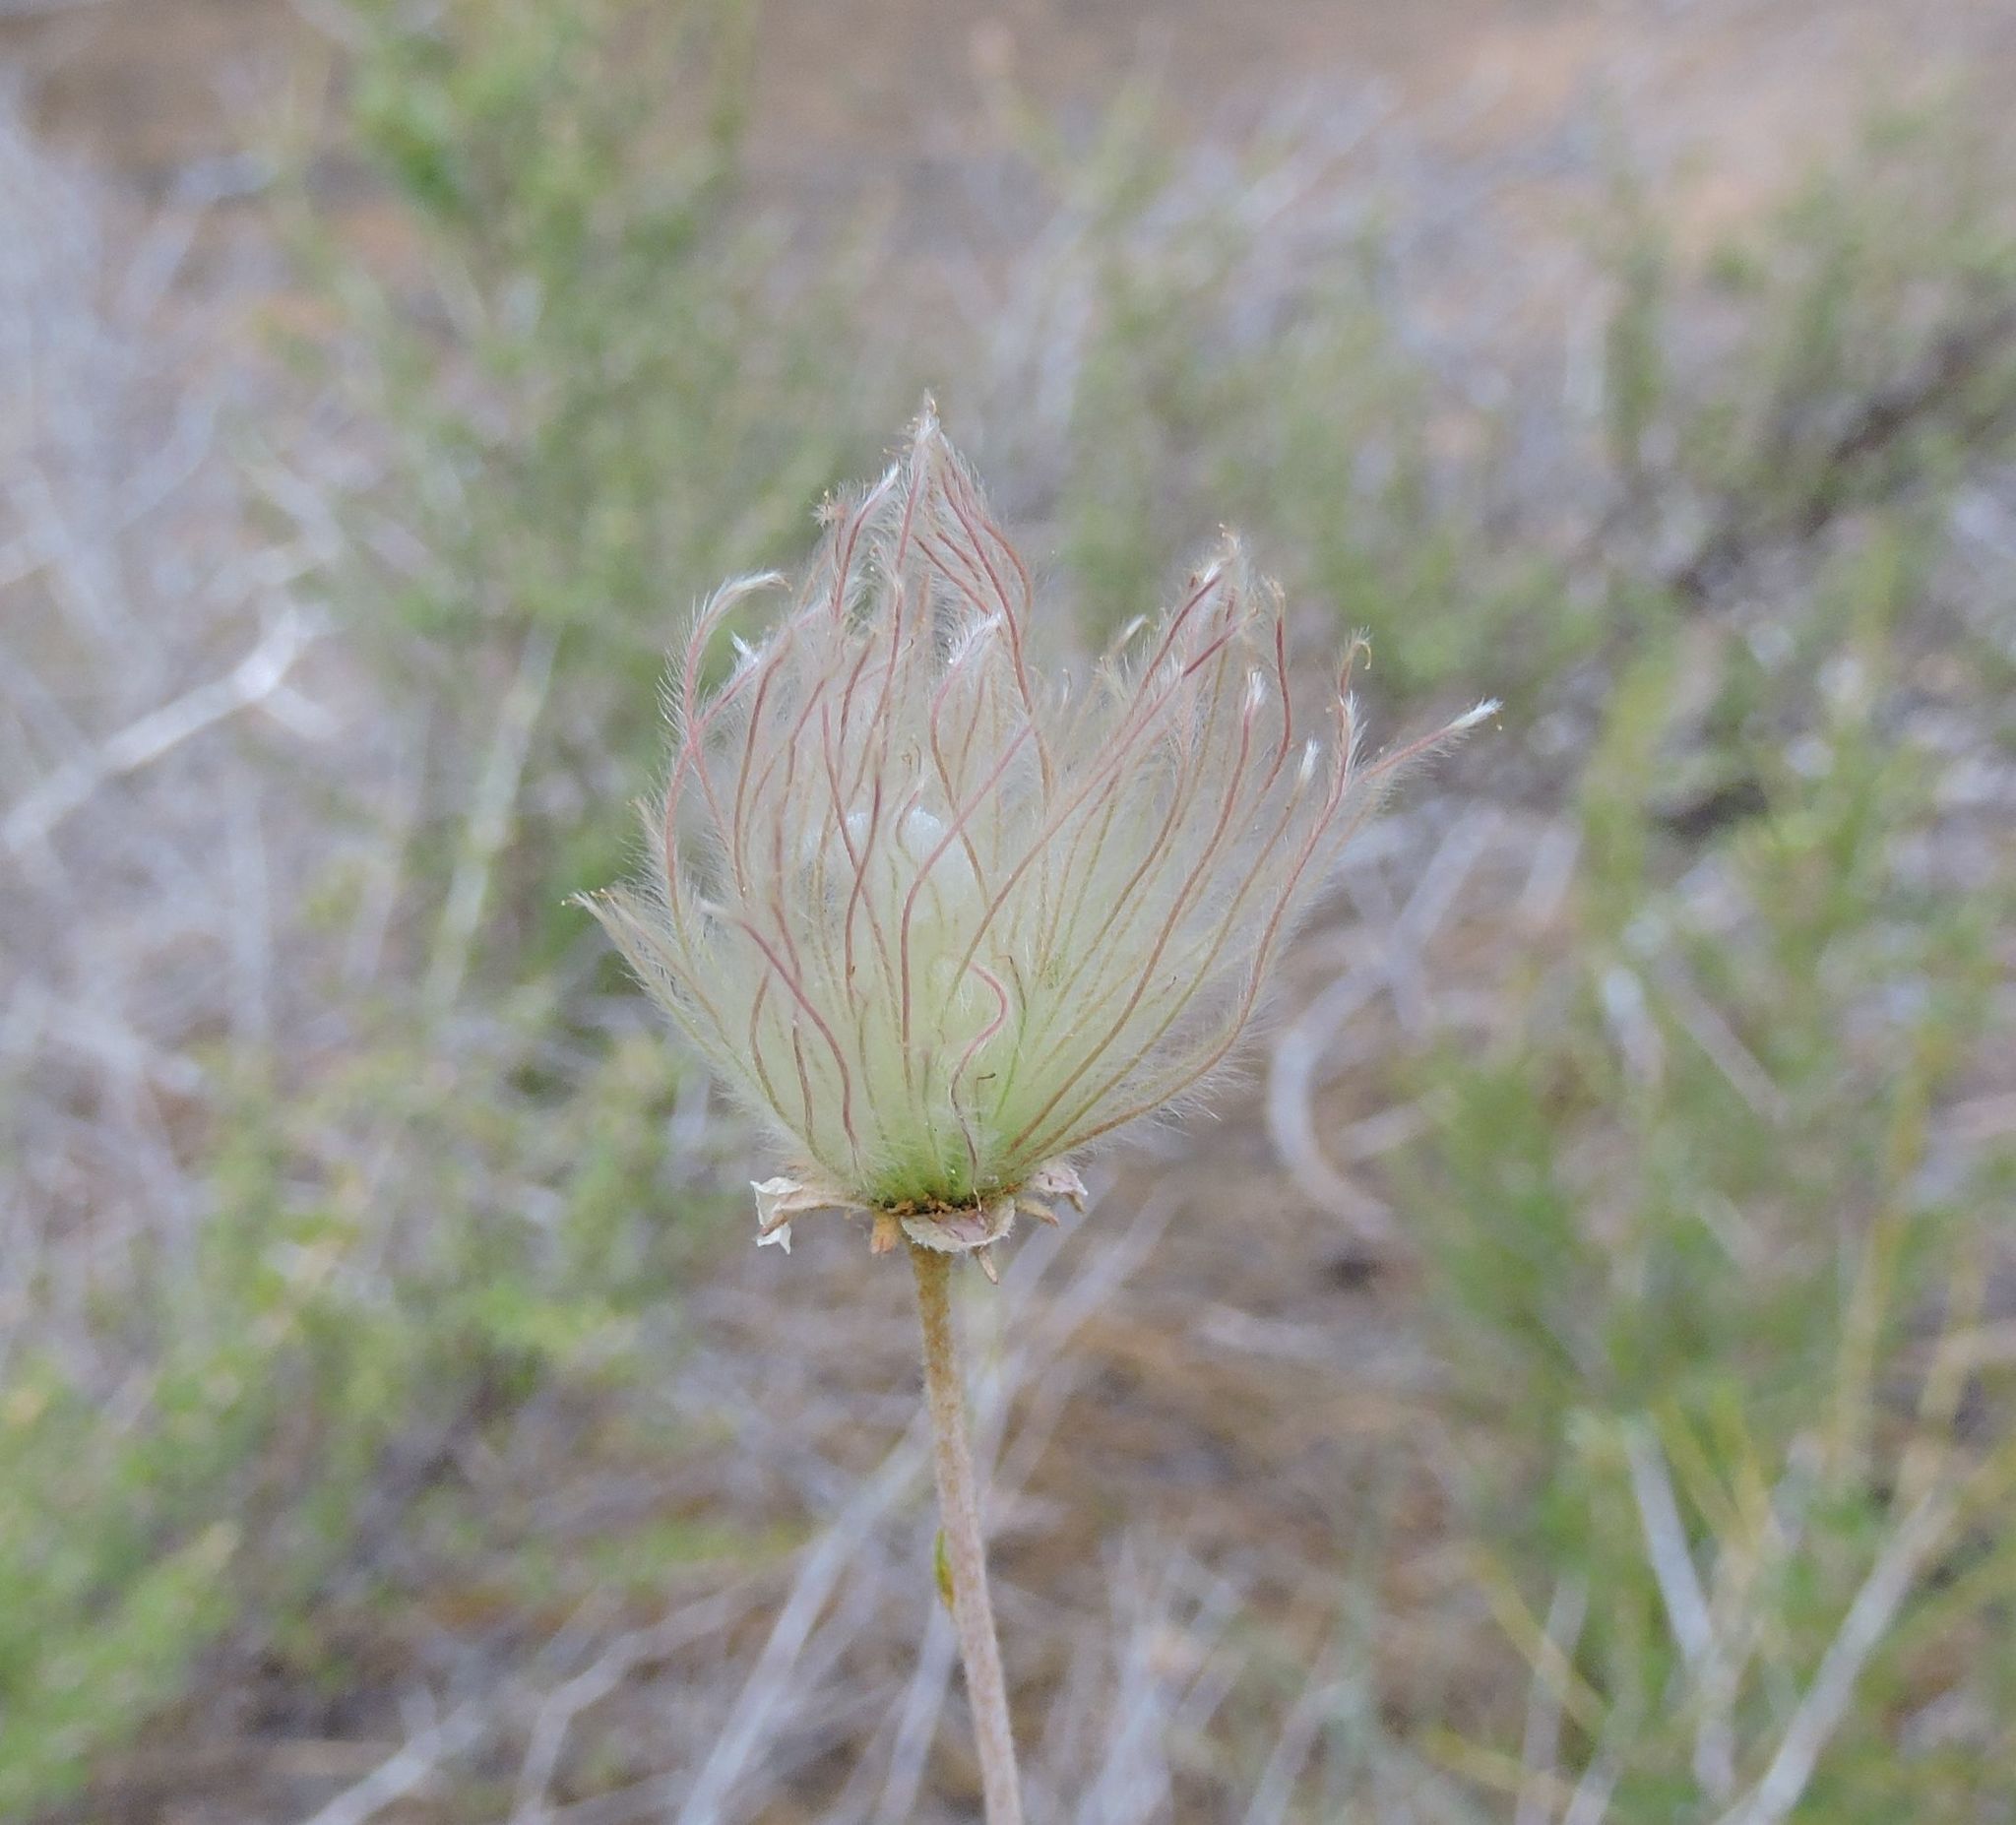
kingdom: Plantae
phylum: Tracheophyta
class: Magnoliopsida
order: Rosales
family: Rosaceae
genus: Fallugia
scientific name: Fallugia paradoxa
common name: Apache-plume
